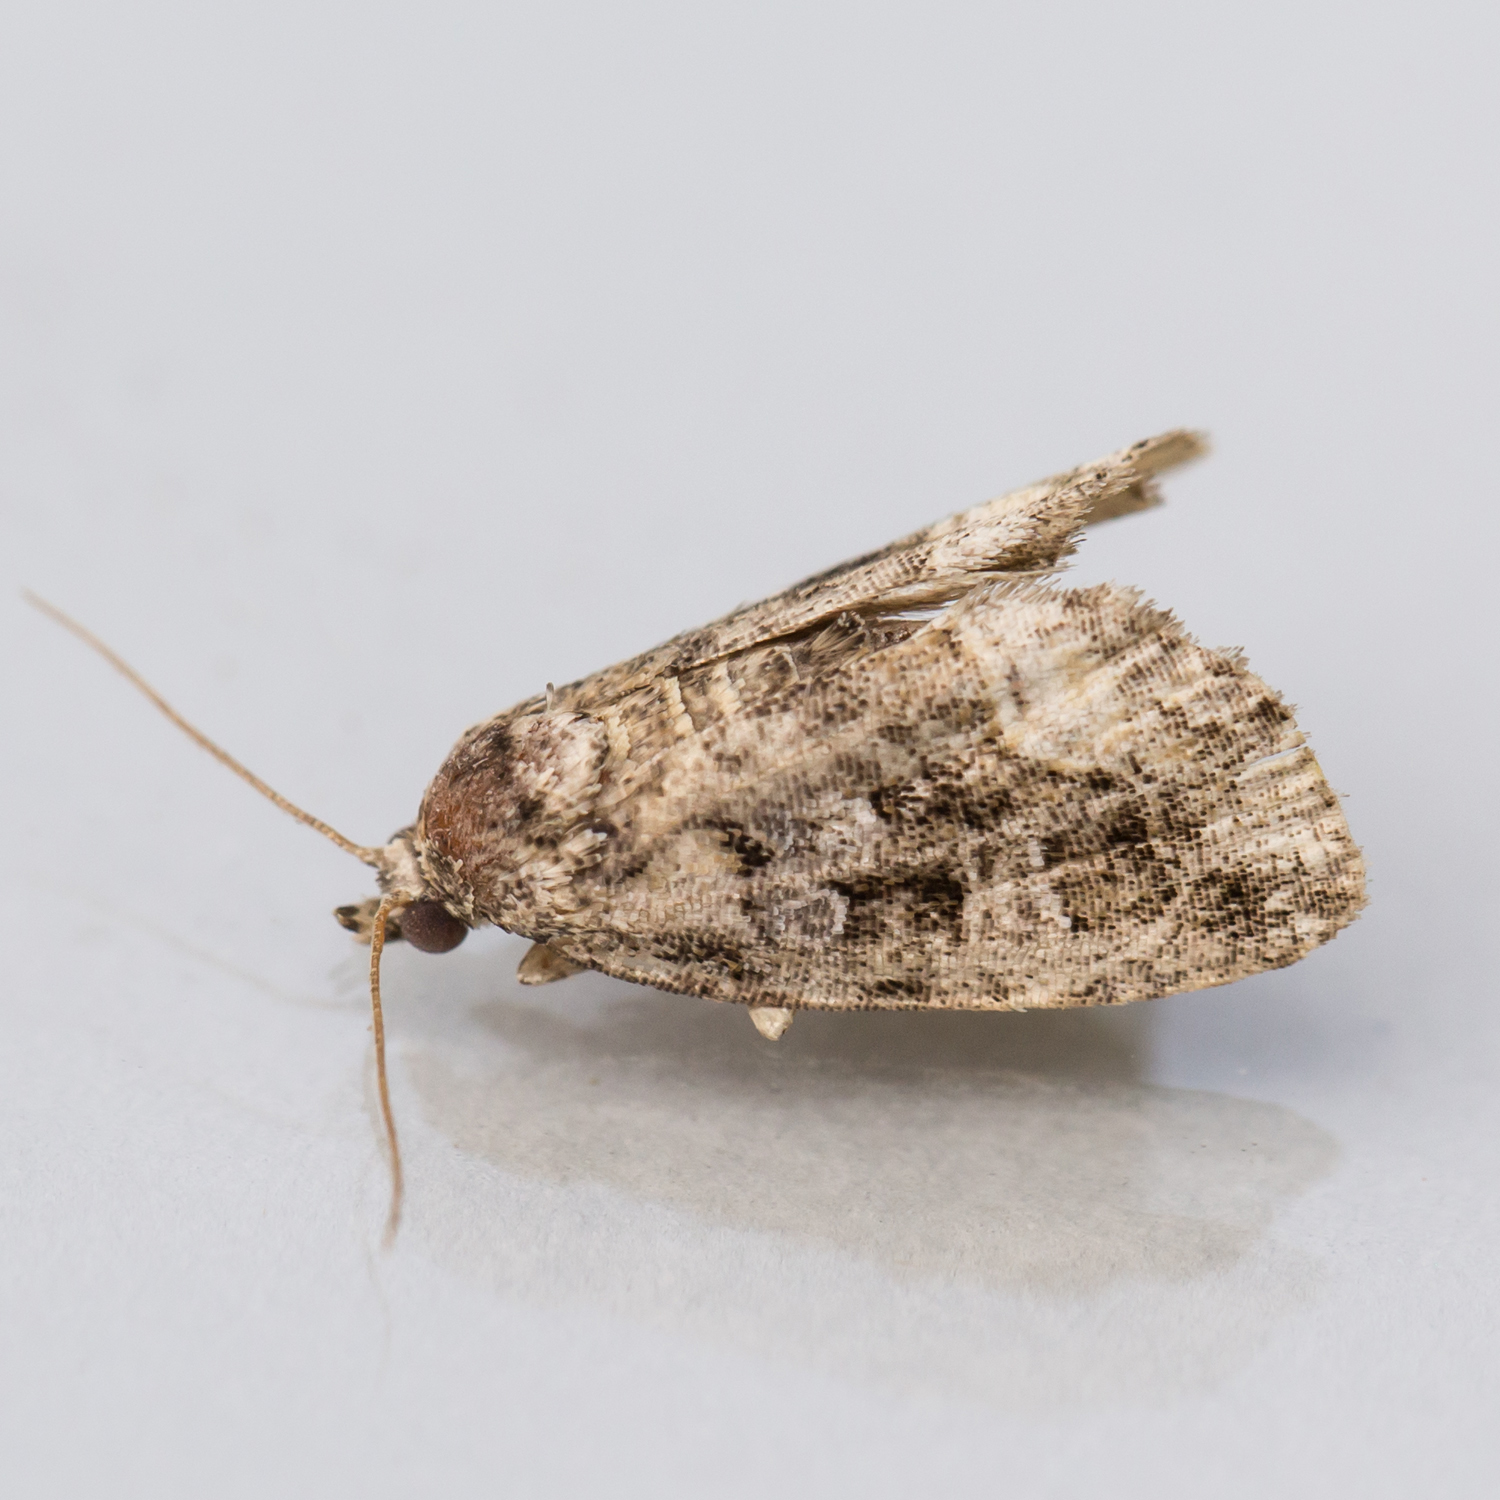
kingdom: Animalia
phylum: Arthropoda
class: Insecta
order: Lepidoptera
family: Noctuidae
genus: Protodeltote
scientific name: Protodeltote muscosula
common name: Large mossy glyph
